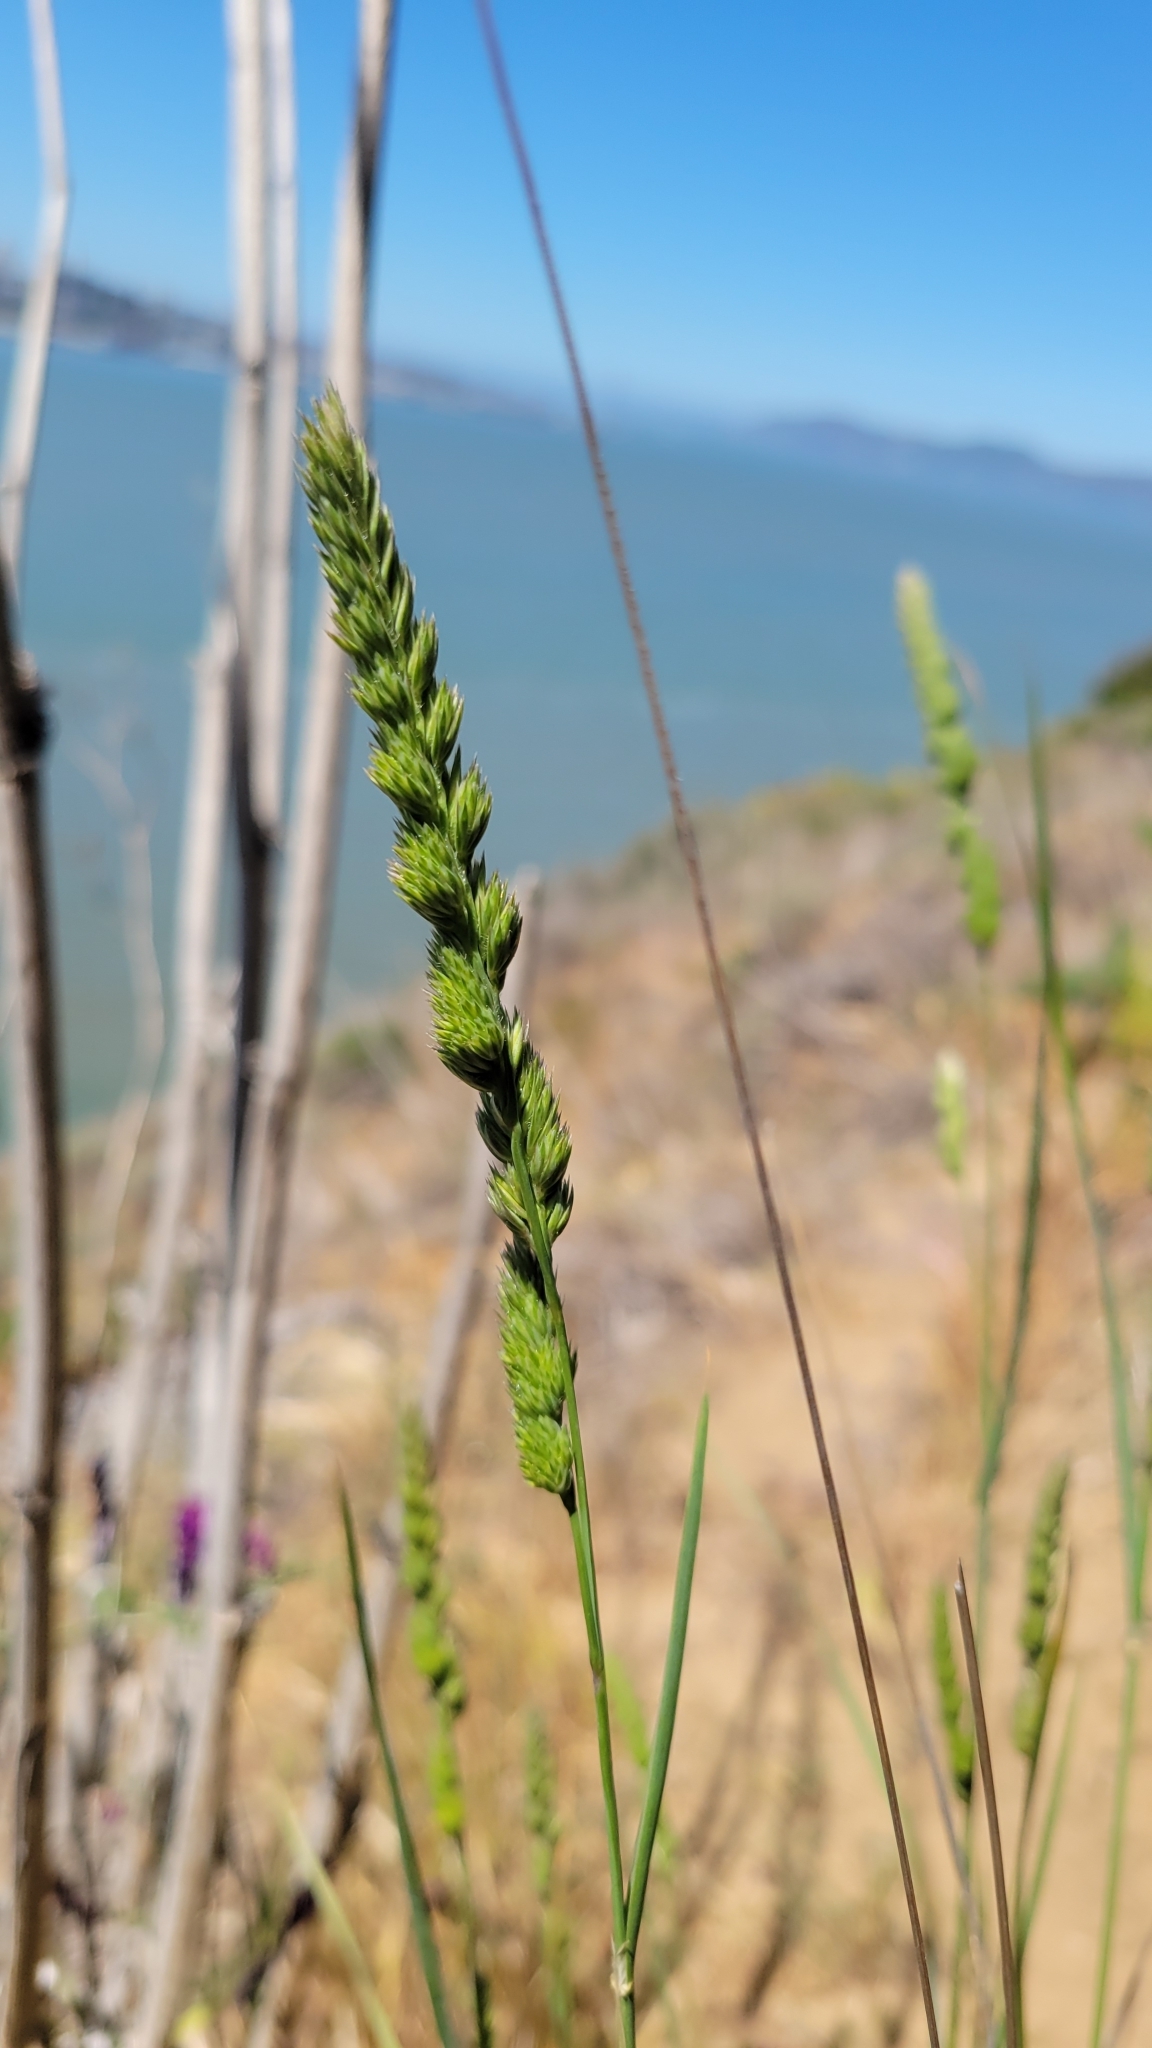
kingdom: Plantae
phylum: Tracheophyta
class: Liliopsida
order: Poales
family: Poaceae
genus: Dactylis
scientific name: Dactylis glomerata
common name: Orchardgrass
